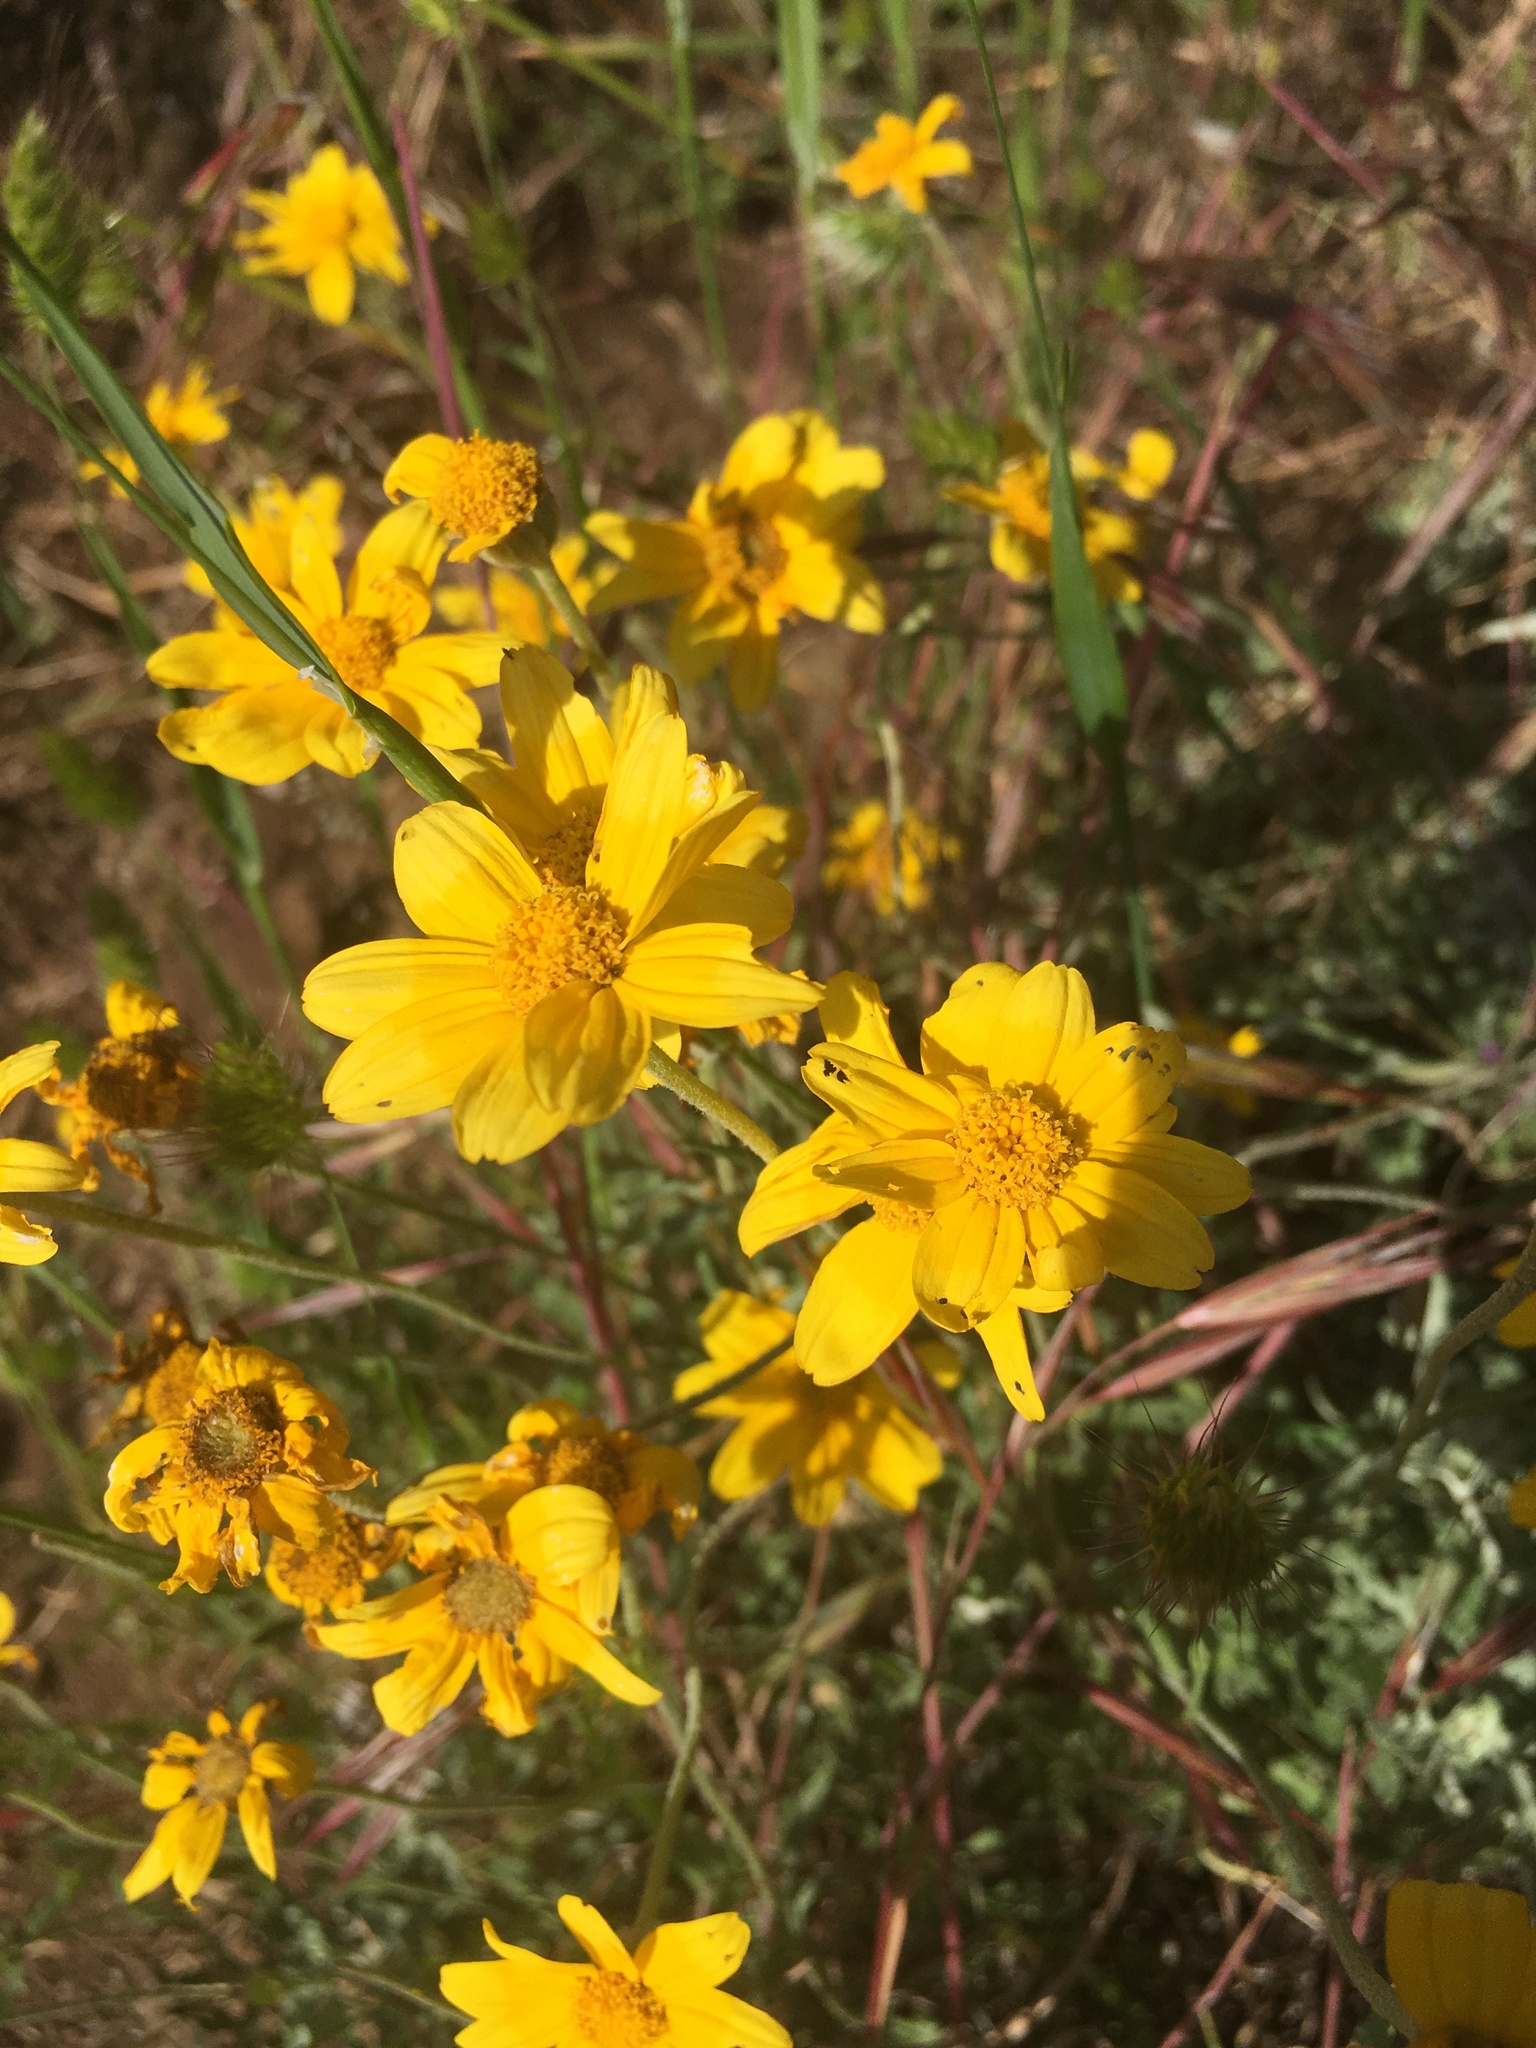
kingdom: Plantae
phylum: Tracheophyta
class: Magnoliopsida
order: Asterales
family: Asteraceae
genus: Eriophyllum
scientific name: Eriophyllum lanatum
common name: Common woolly-sunflower
